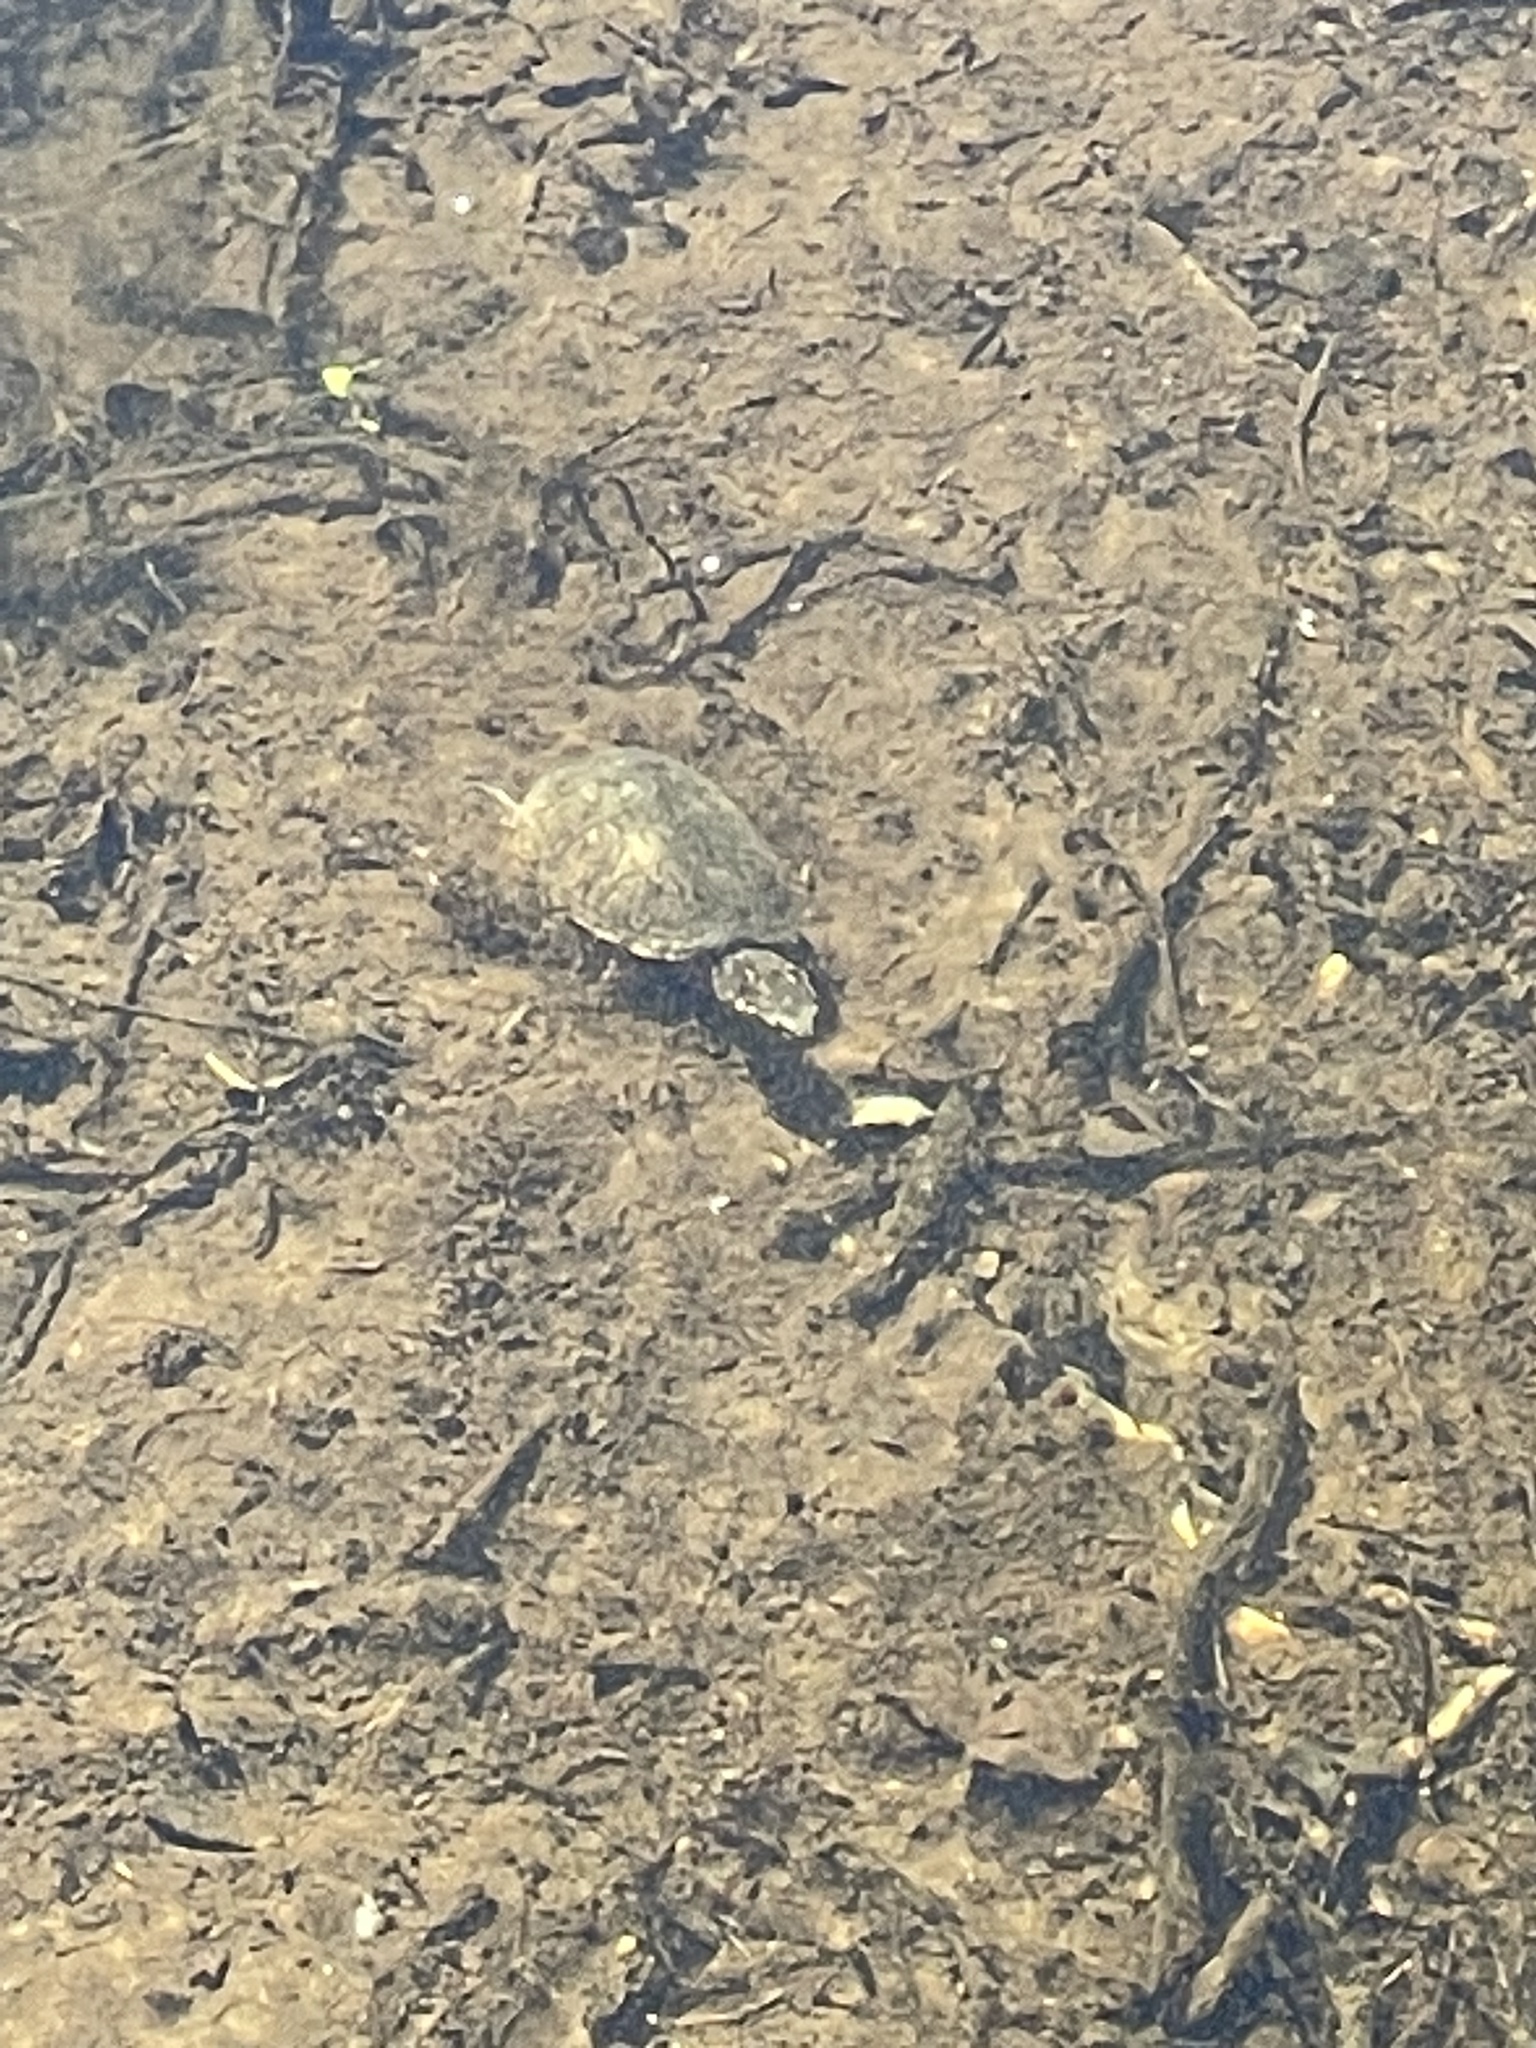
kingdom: Animalia
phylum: Chordata
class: Testudines
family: Kinosternidae
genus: Sternotherus
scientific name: Sternotherus odoratus
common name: Common musk turtle
